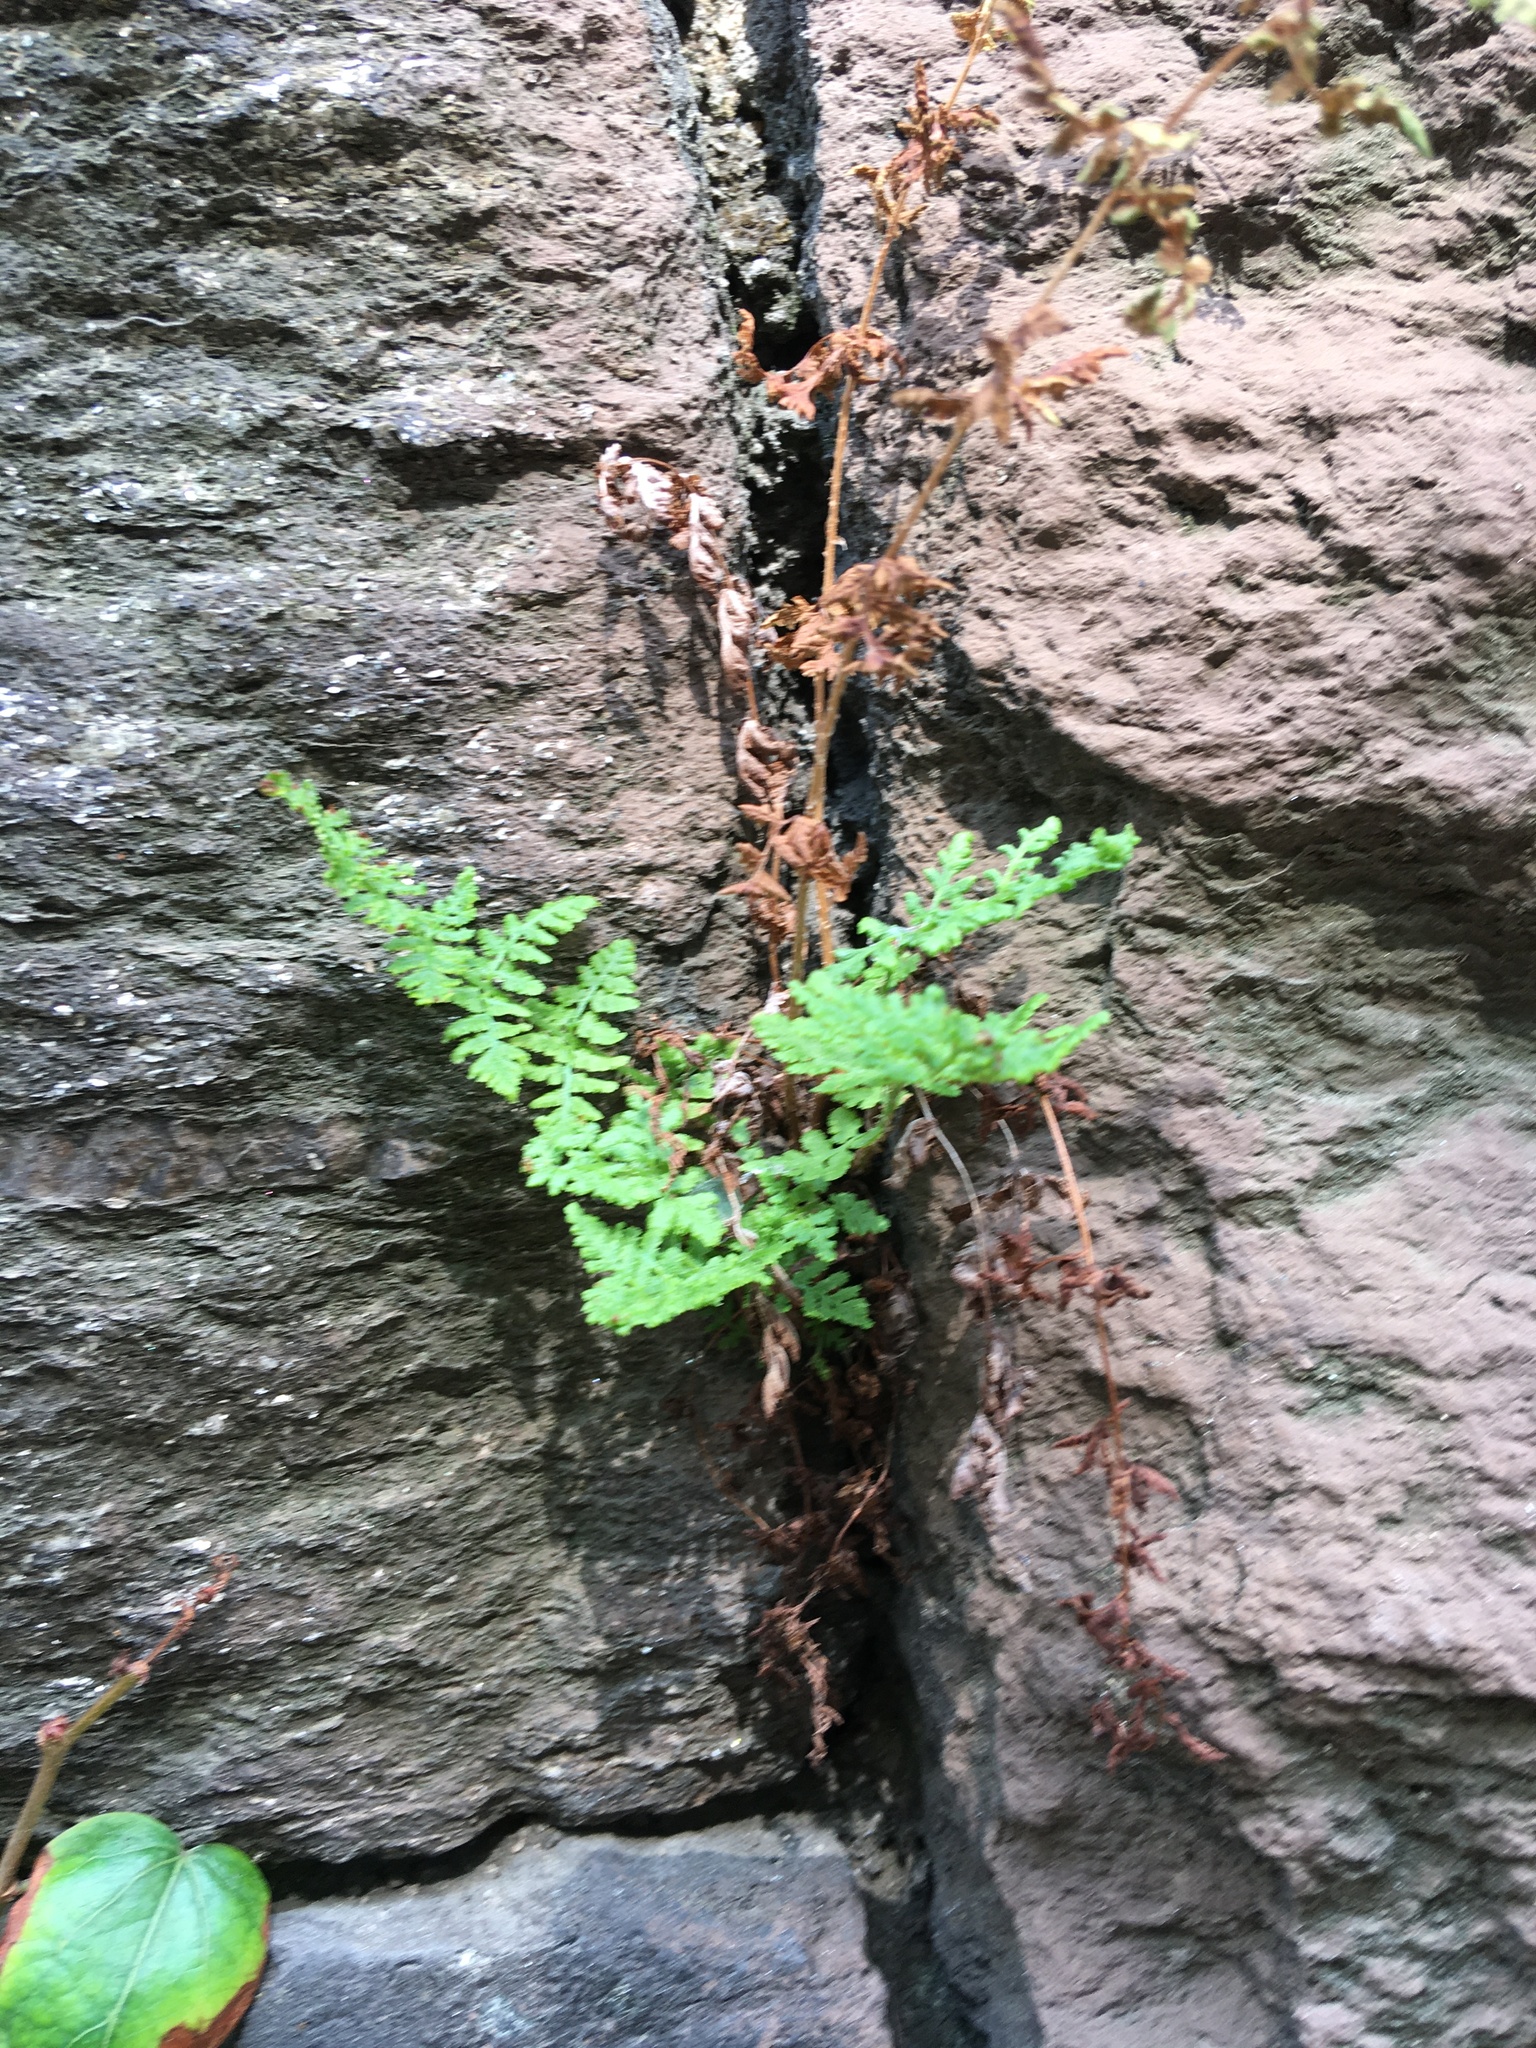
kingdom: Plantae
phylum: Tracheophyta
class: Polypodiopsida
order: Polypodiales
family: Woodsiaceae
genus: Physematium
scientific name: Physematium obtusum
